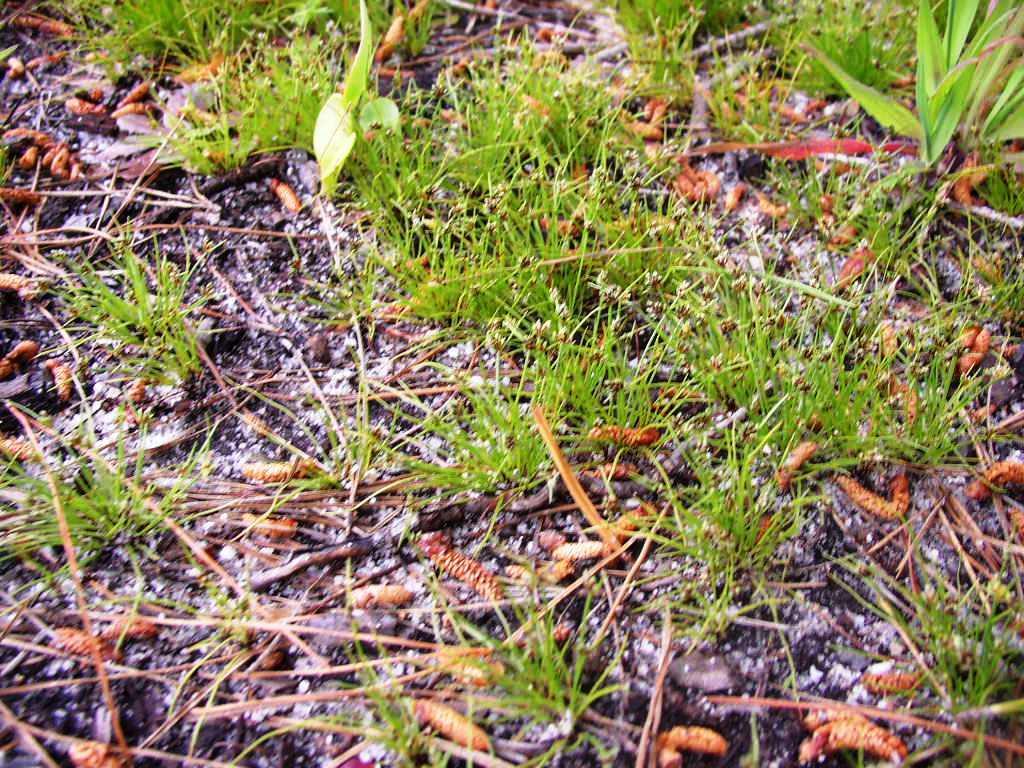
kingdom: Plantae
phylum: Tracheophyta
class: Liliopsida
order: Poales
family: Cyperaceae
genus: Isolepis
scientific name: Isolepis marginata
